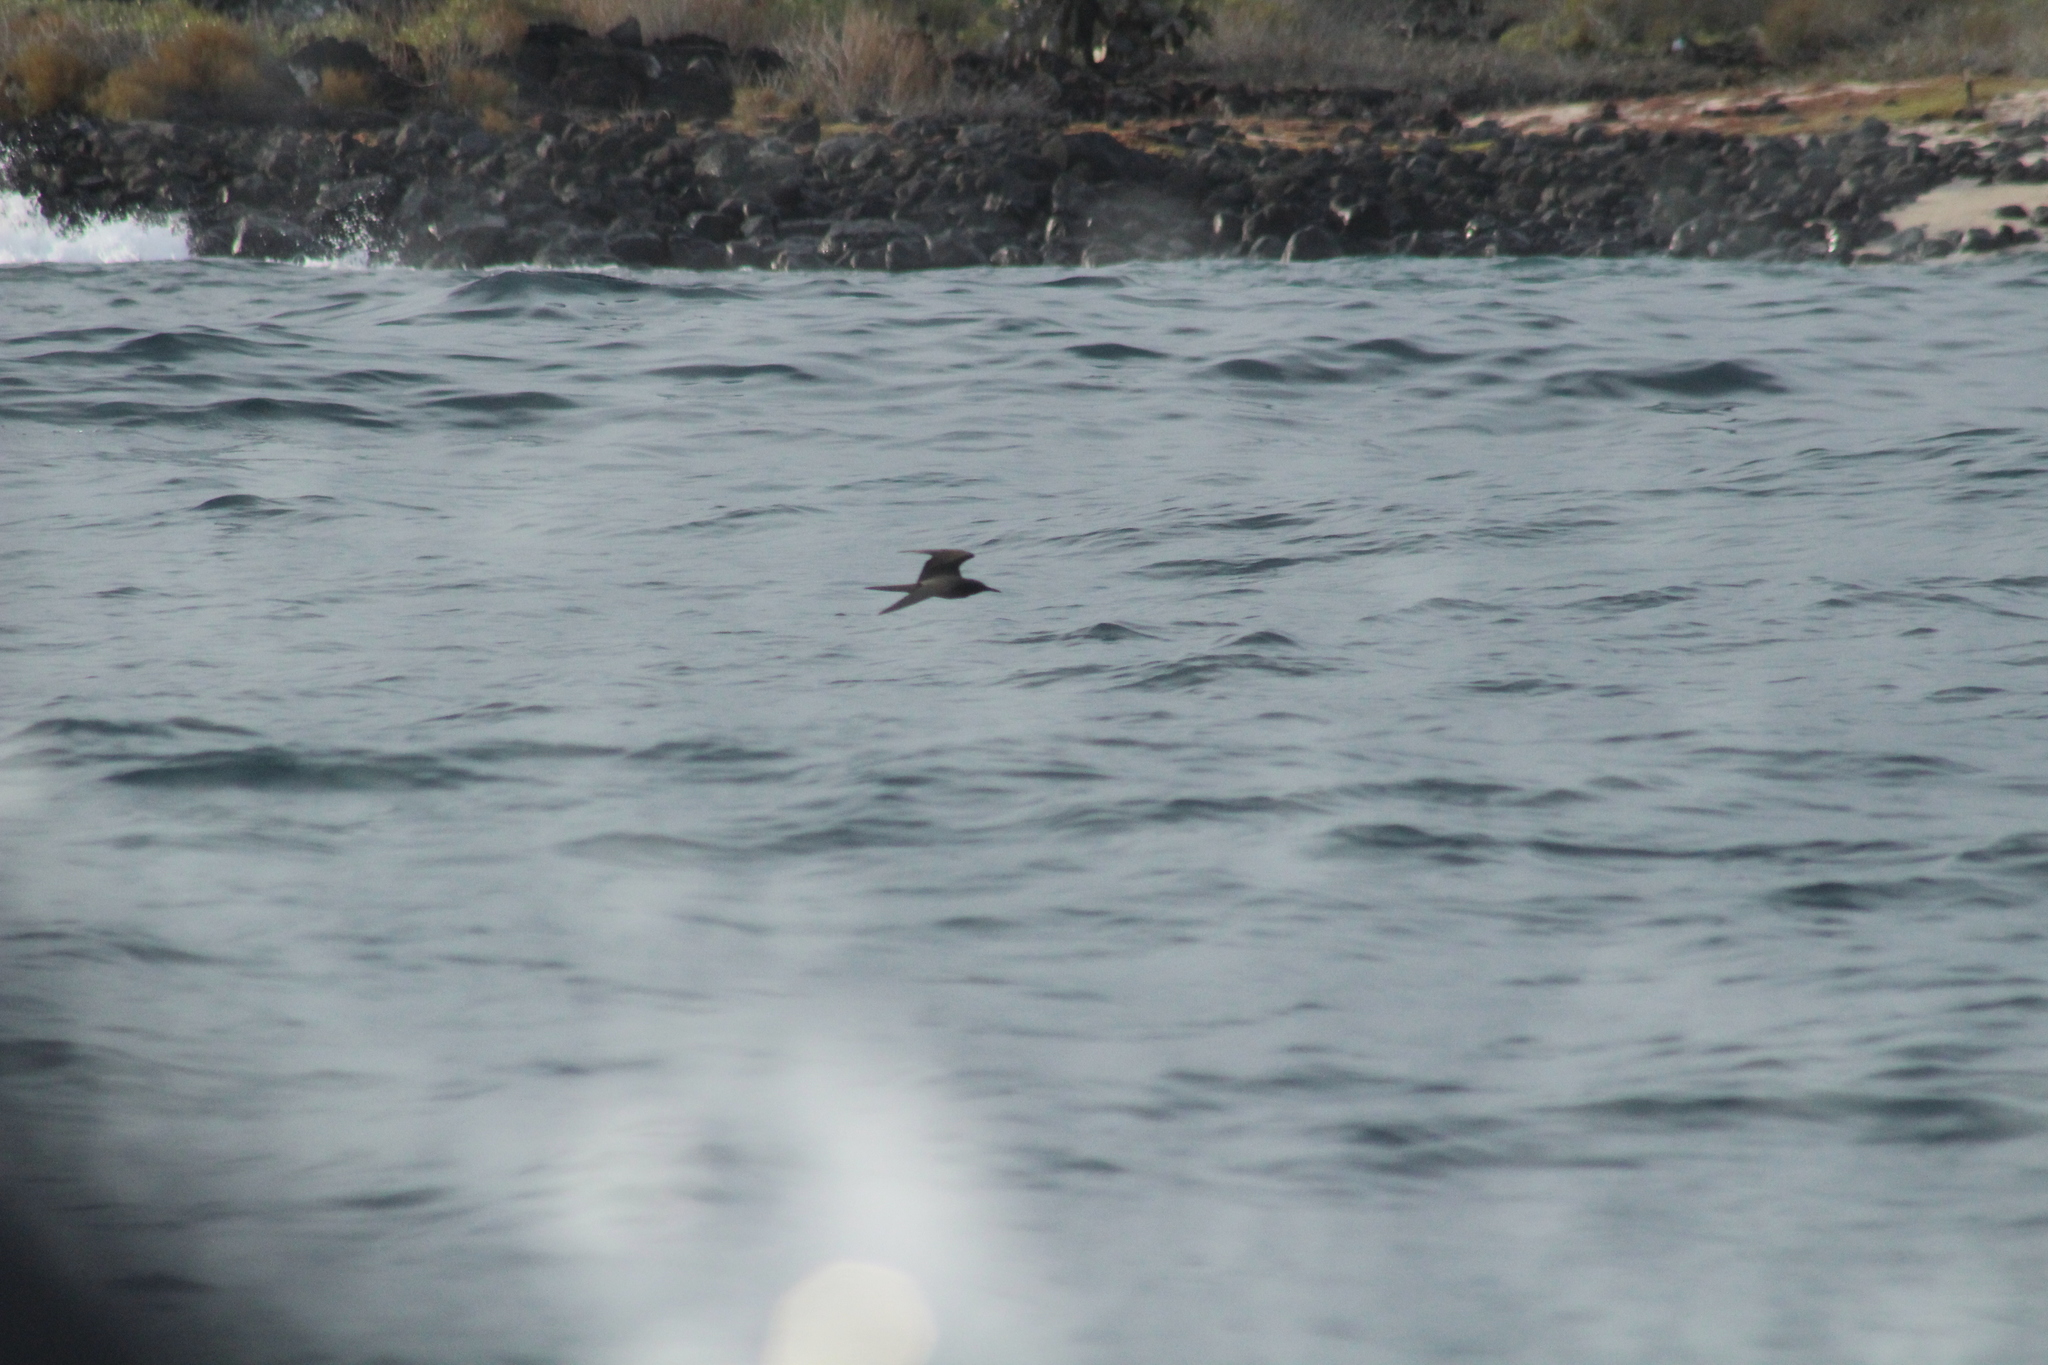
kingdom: Animalia
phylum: Chordata
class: Aves
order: Charadriiformes
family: Laridae
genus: Anous
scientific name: Anous stolidus
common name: Brown noddy
